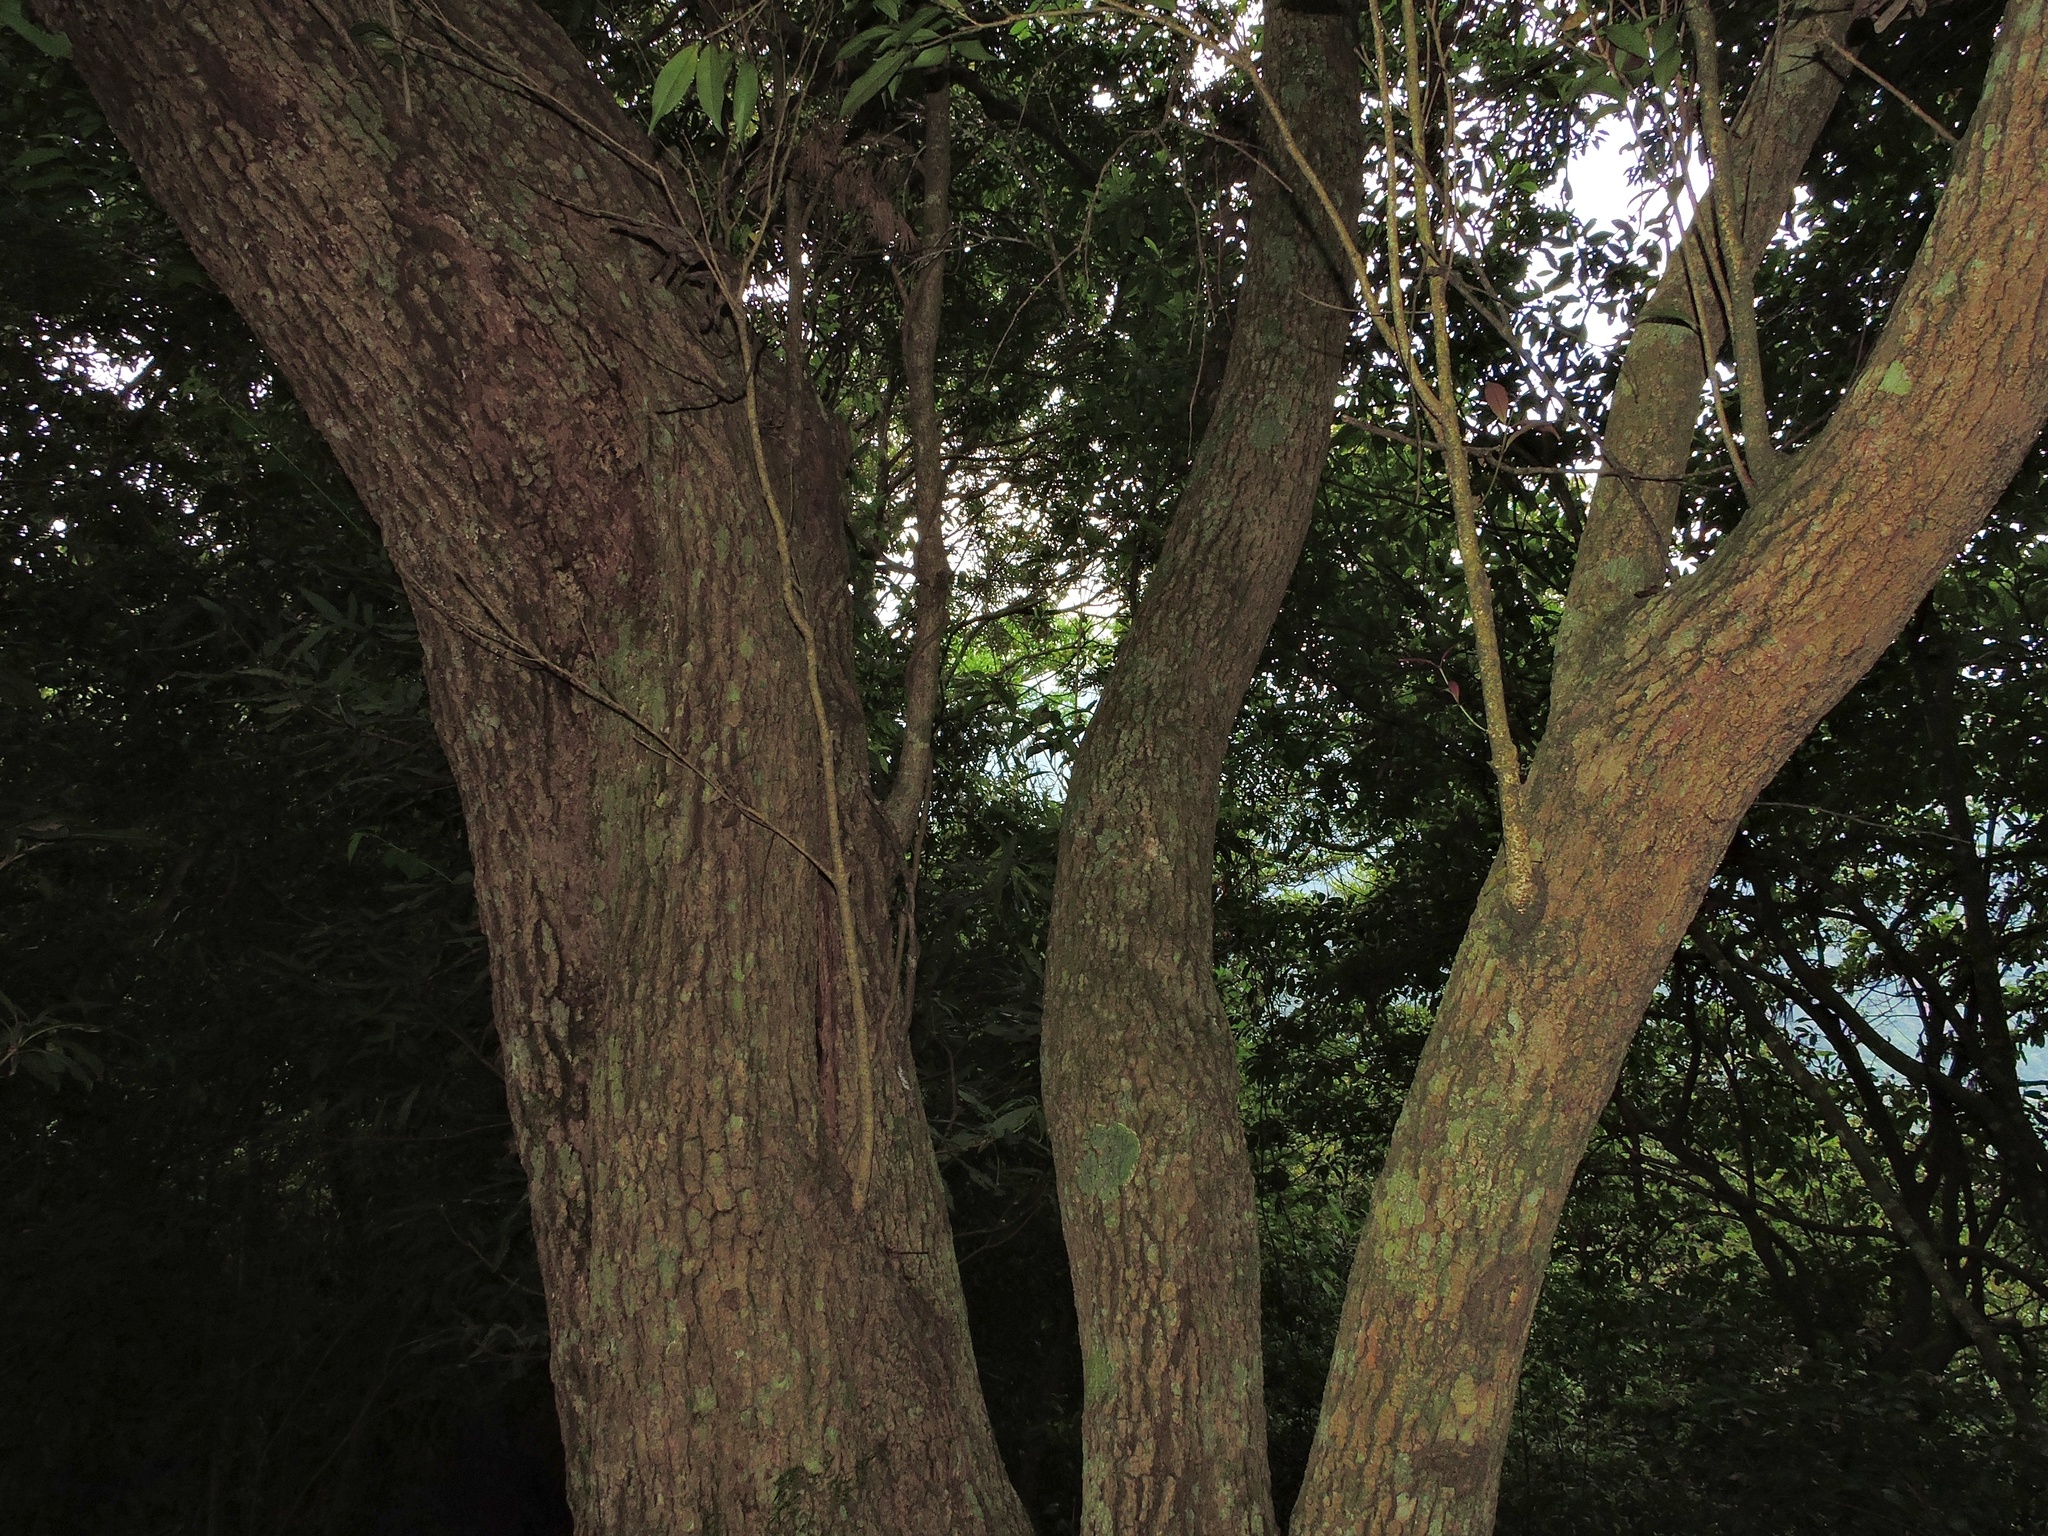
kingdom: Plantae
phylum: Tracheophyta
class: Magnoliopsida
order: Lamiales
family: Oleaceae
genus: Osmanthus
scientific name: Osmanthus enervius
